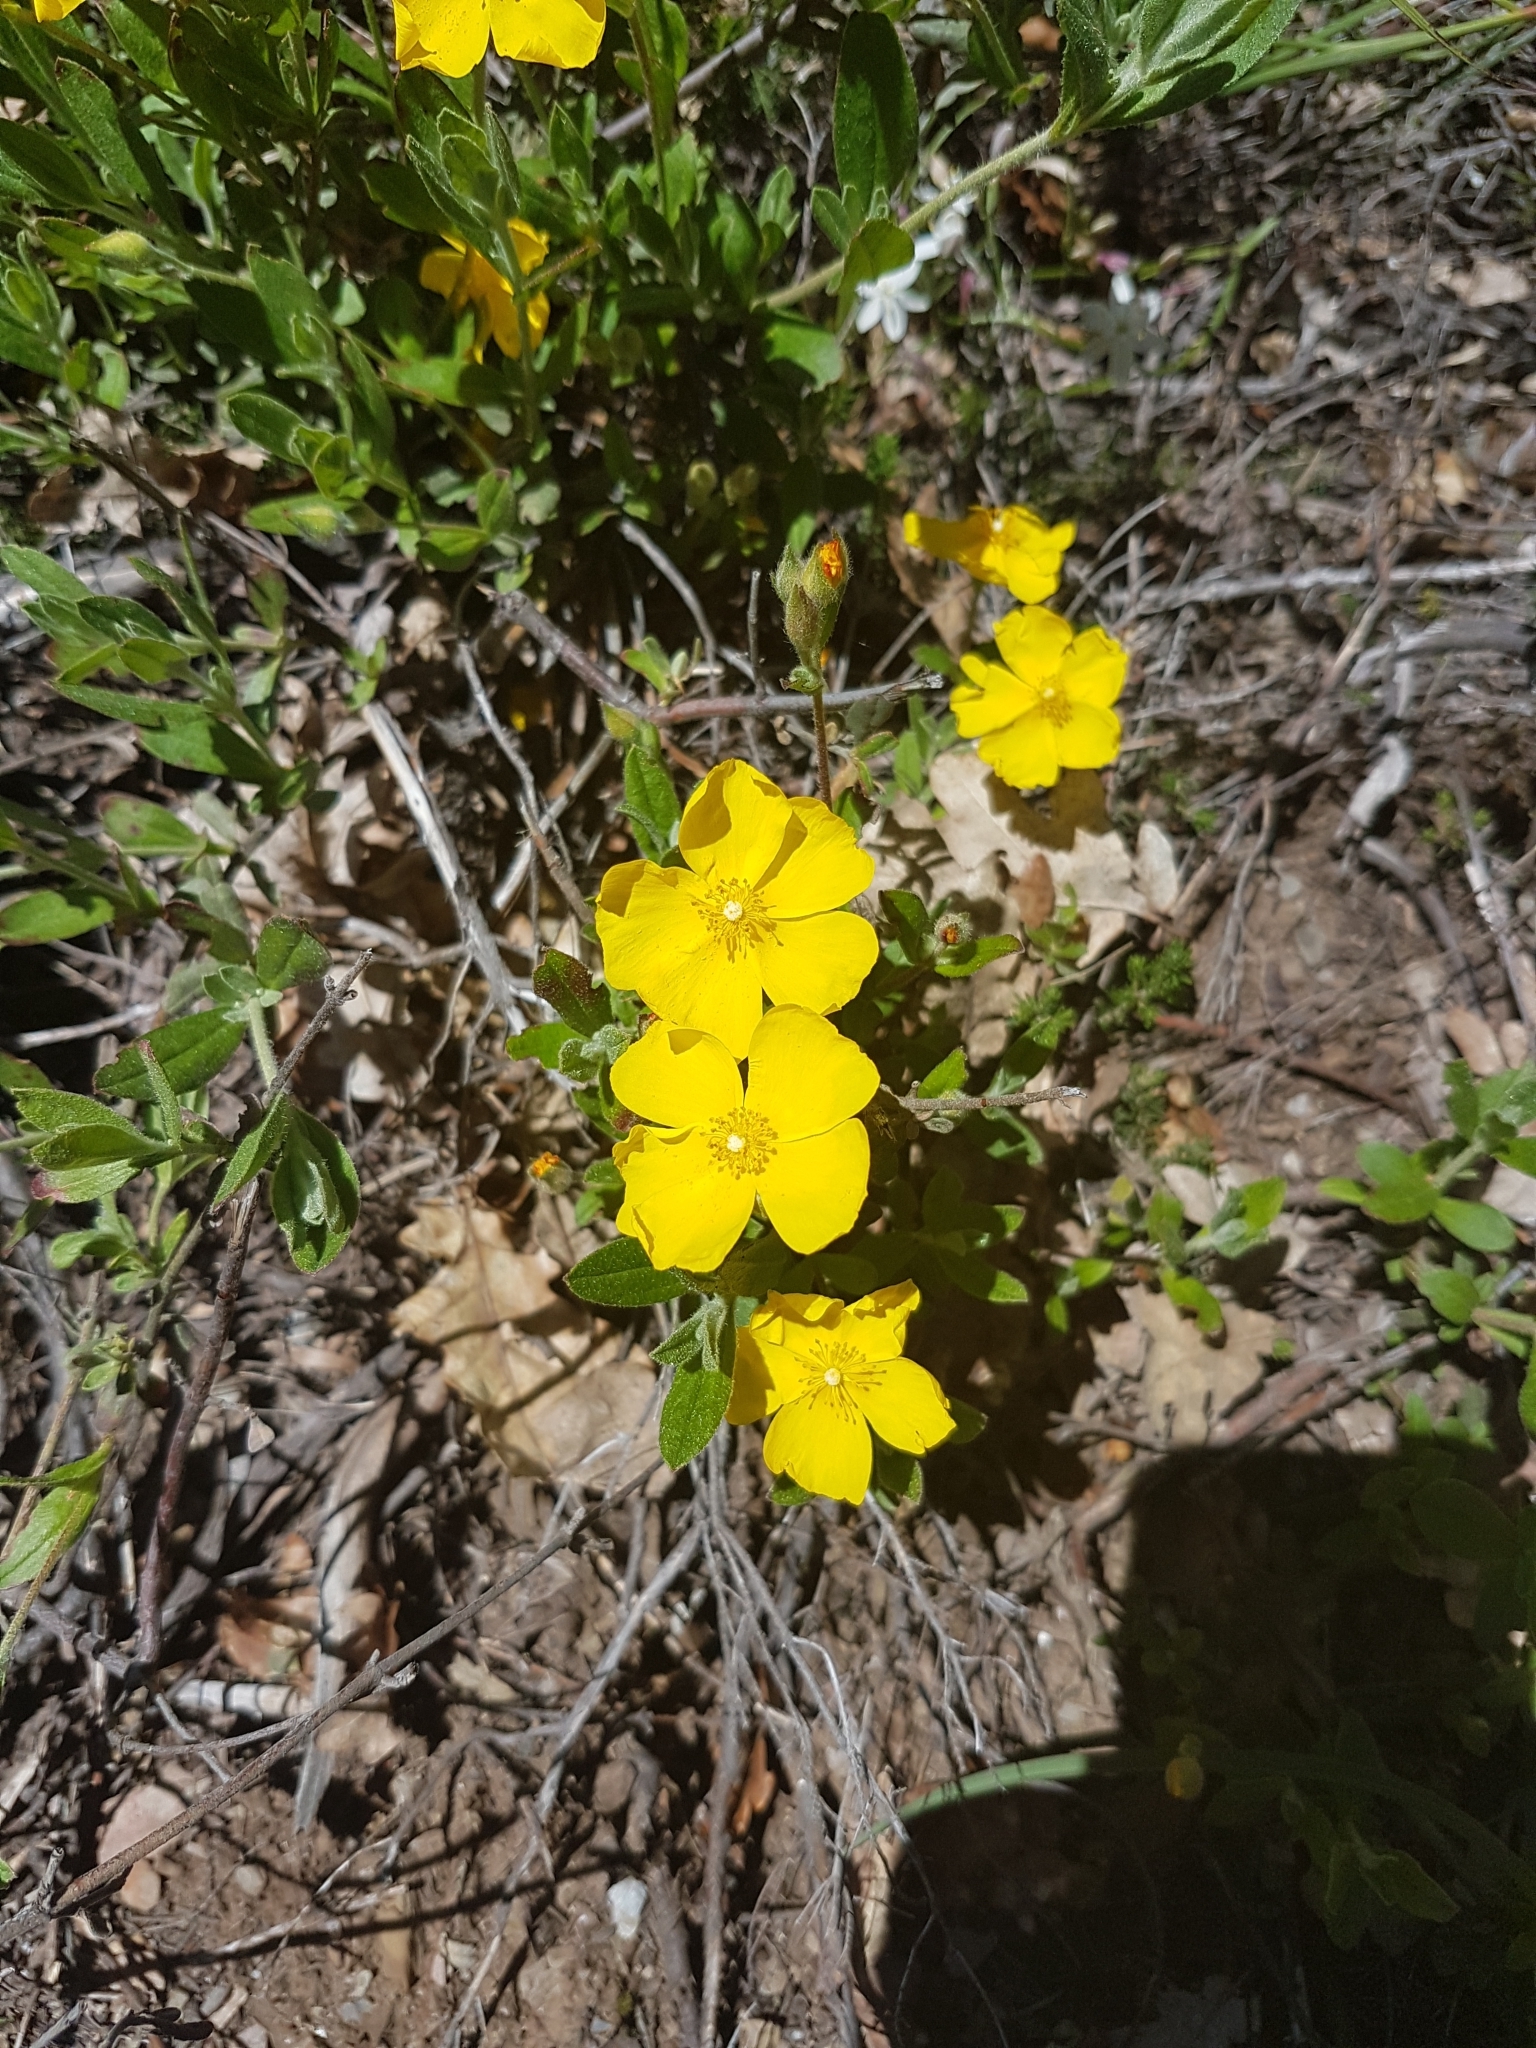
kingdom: Plantae
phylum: Tracheophyta
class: Magnoliopsida
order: Malvales
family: Cistaceae
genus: Halimium
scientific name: Halimium lasianthum
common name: Lisbon false sun-rose
